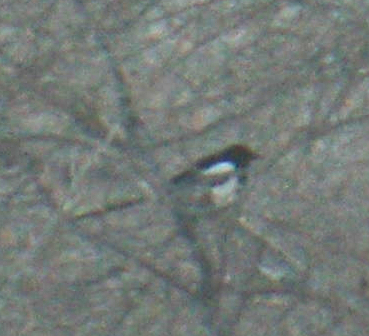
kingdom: Animalia
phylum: Chordata
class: Aves
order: Passeriformes
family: Corvidae
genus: Pica
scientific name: Pica hudsonia
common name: Black-billed magpie
